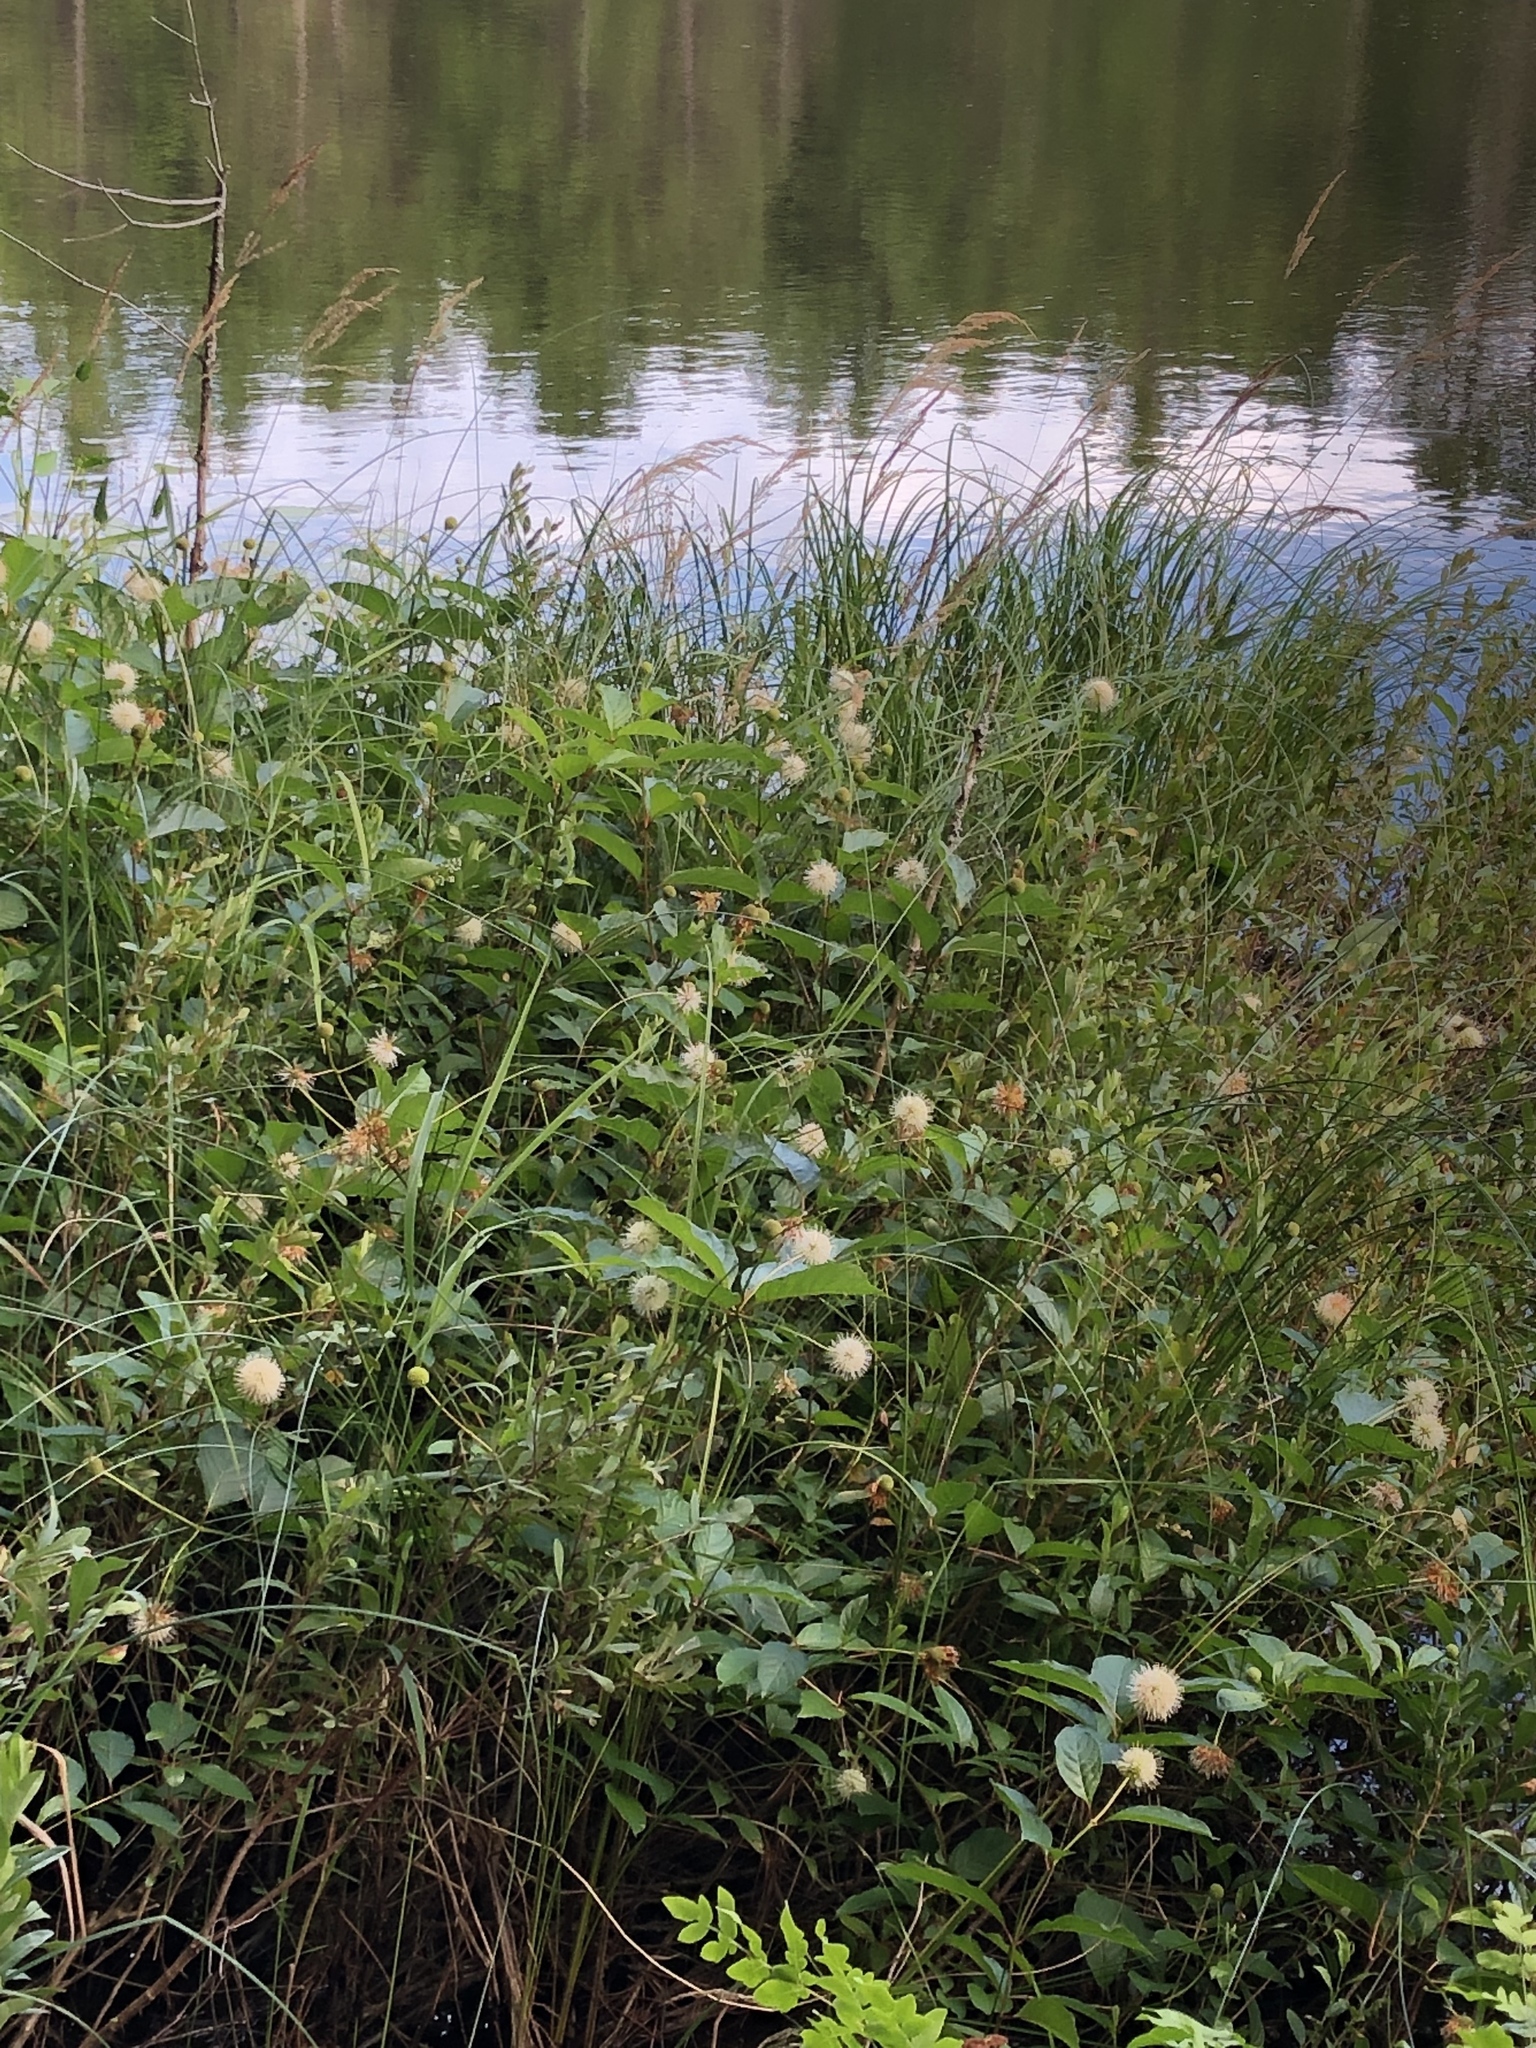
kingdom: Plantae
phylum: Tracheophyta
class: Magnoliopsida
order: Gentianales
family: Rubiaceae
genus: Cephalanthus
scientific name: Cephalanthus occidentalis
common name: Button-willow
